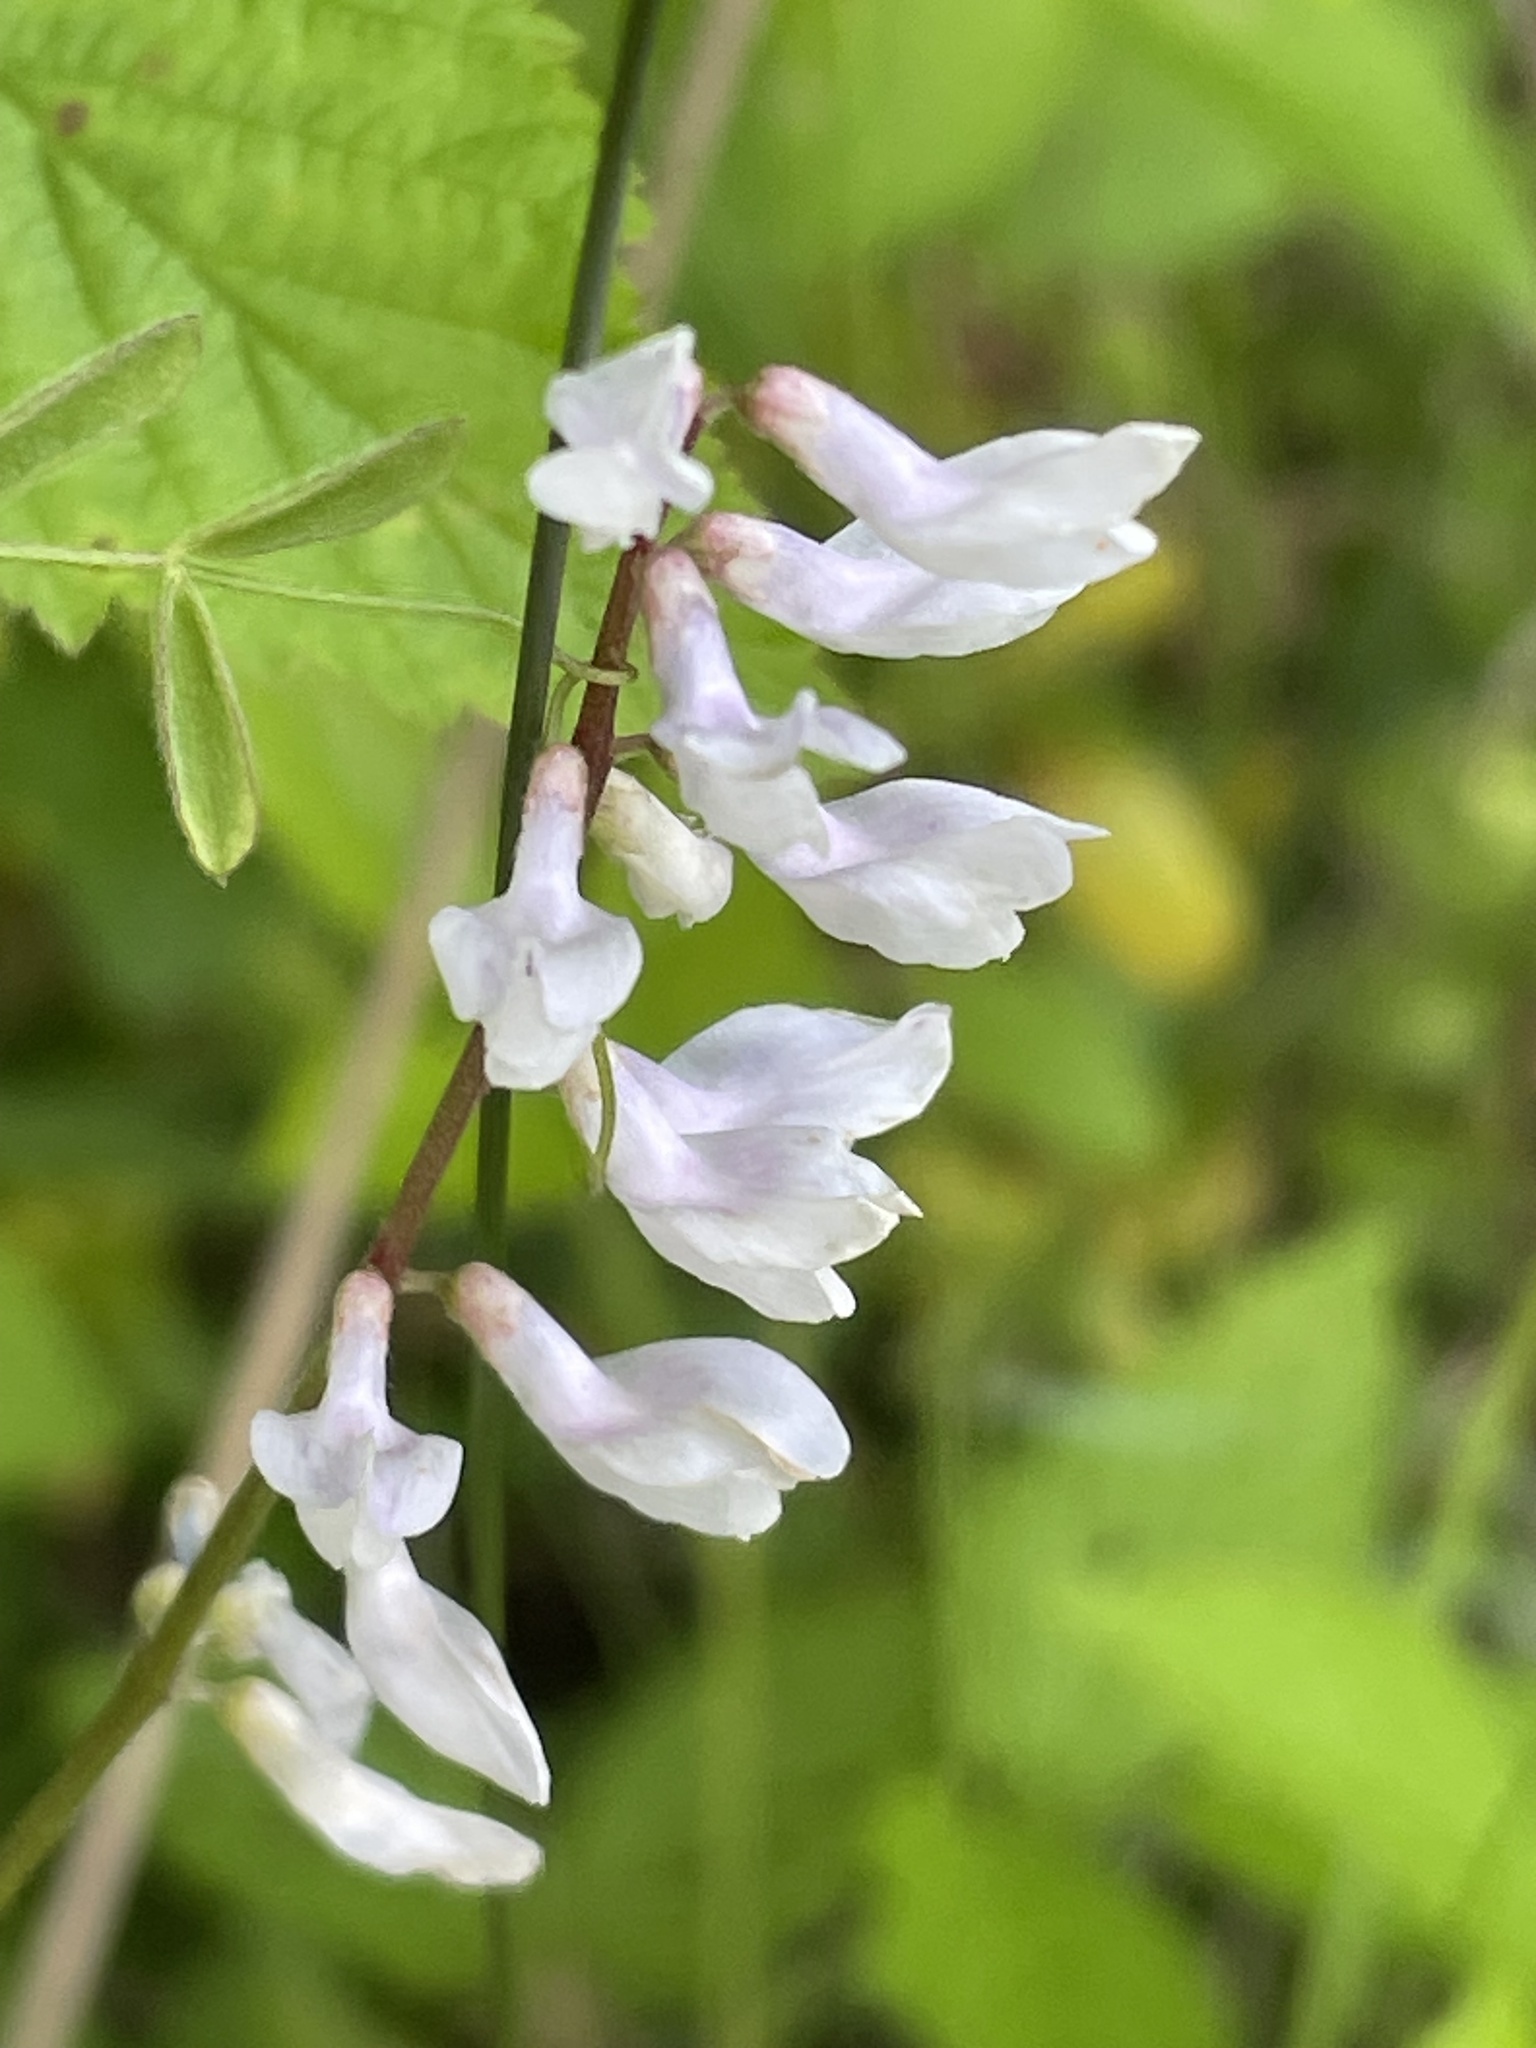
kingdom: Plantae
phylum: Tracheophyta
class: Magnoliopsida
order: Fabales
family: Fabaceae
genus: Vicia
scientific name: Vicia caroliniana
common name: Carolina vetch
